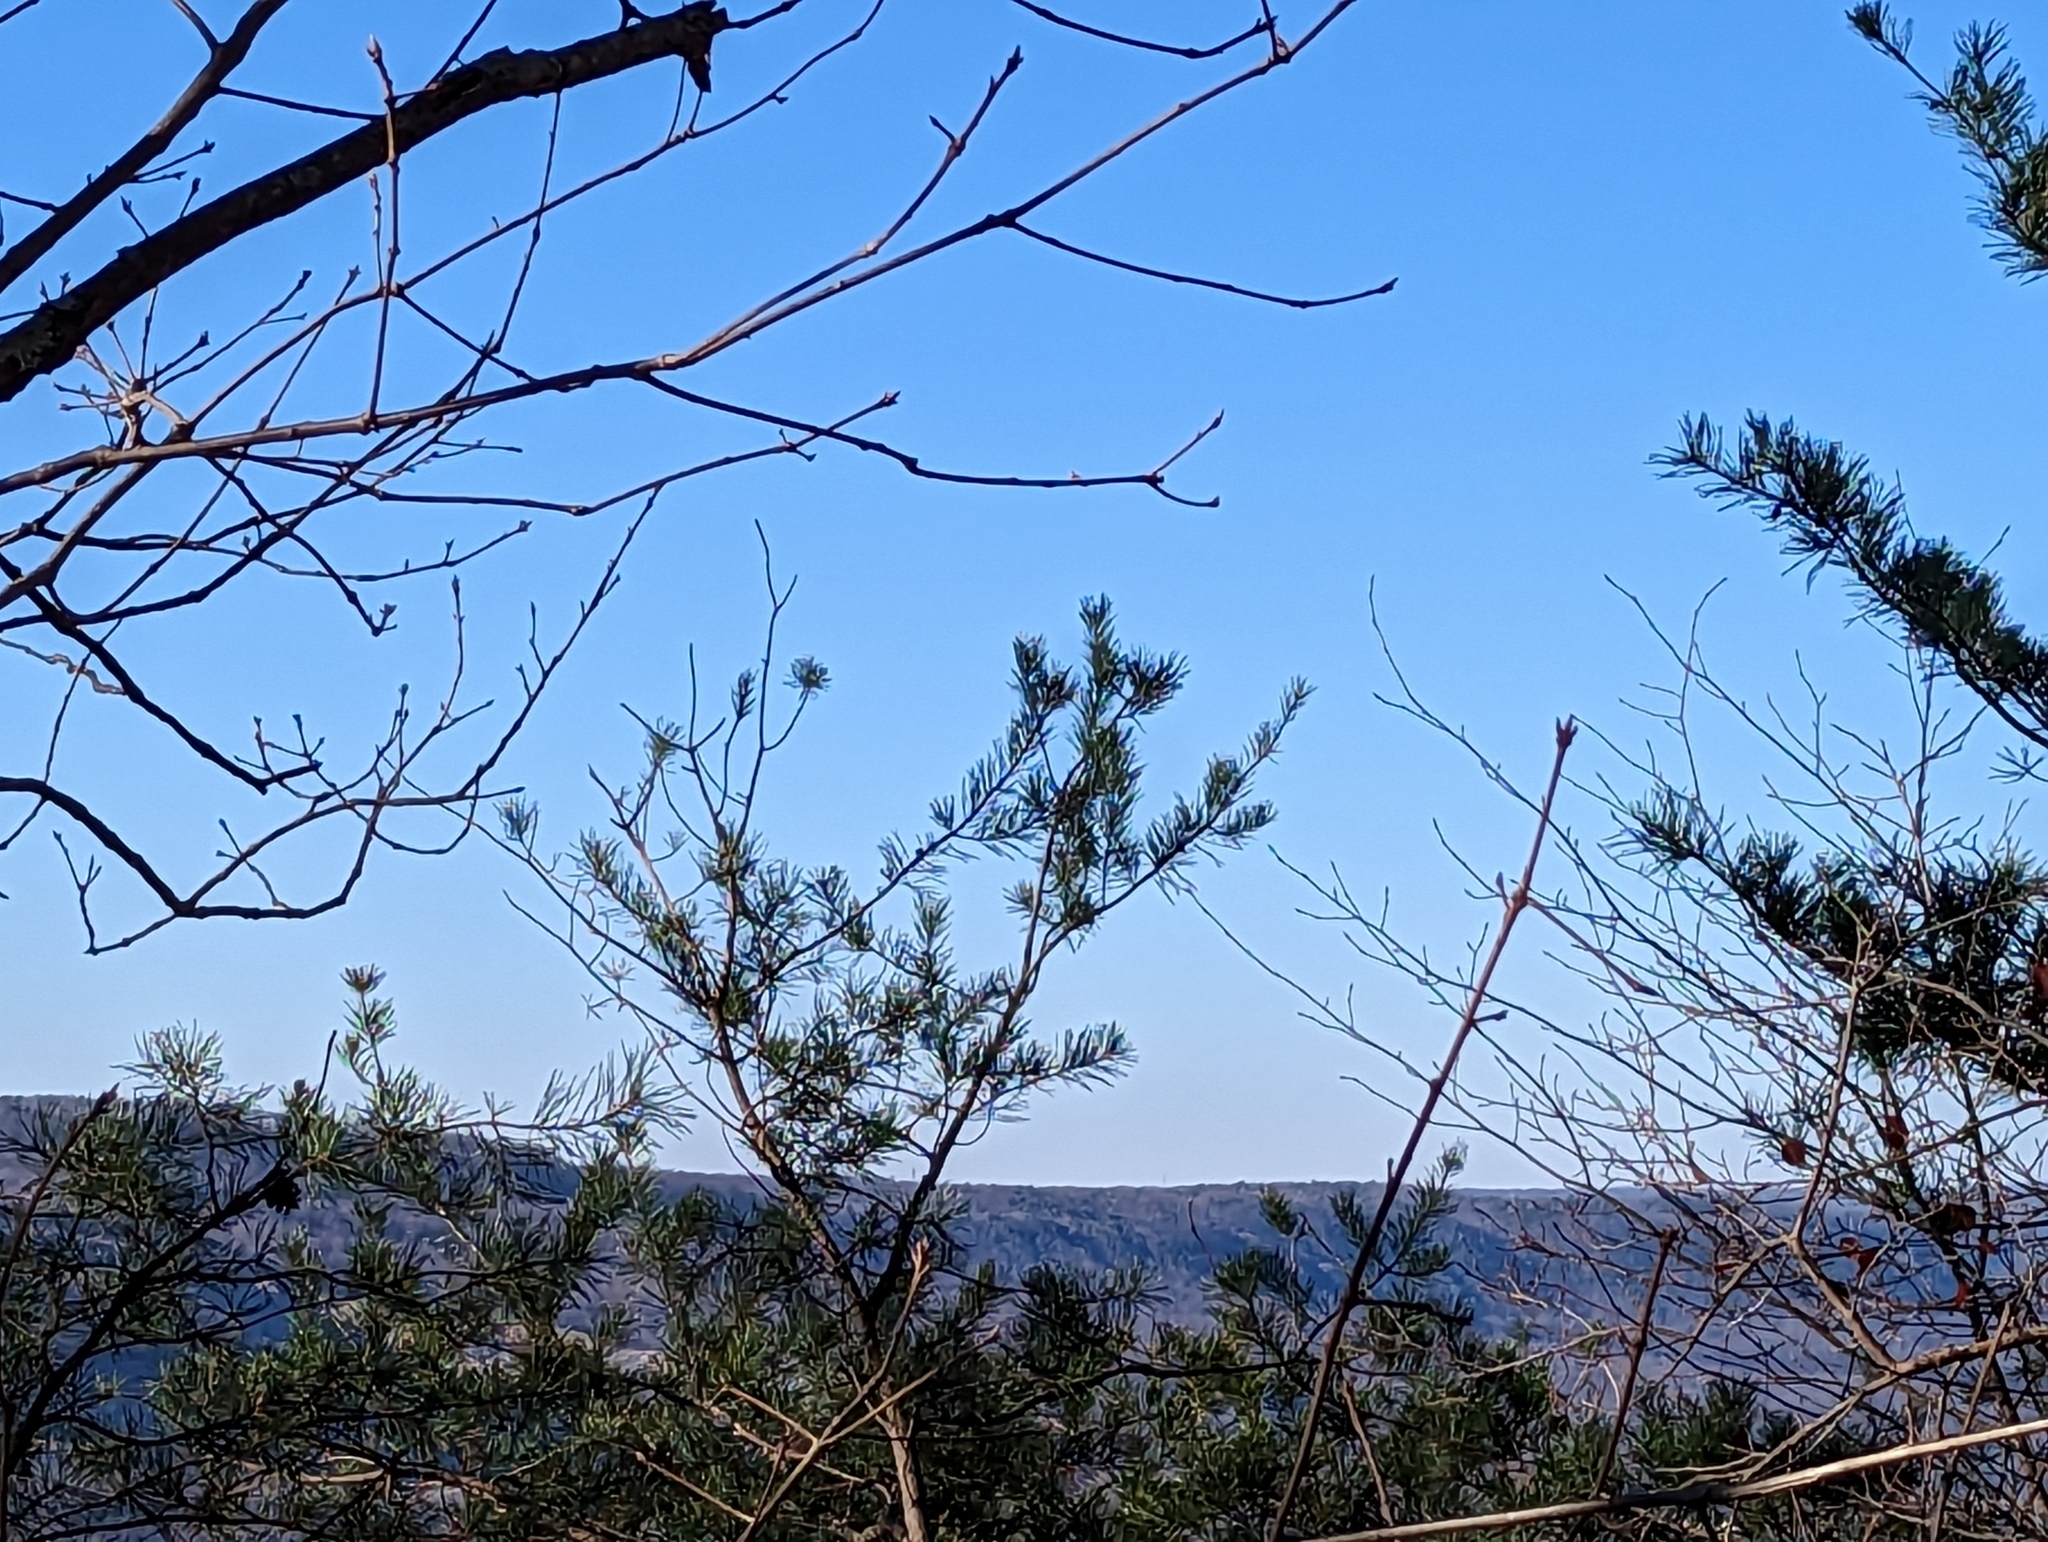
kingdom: Plantae
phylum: Tracheophyta
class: Pinopsida
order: Pinales
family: Pinaceae
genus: Pinus
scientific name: Pinus virginiana
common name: Scrub pine
